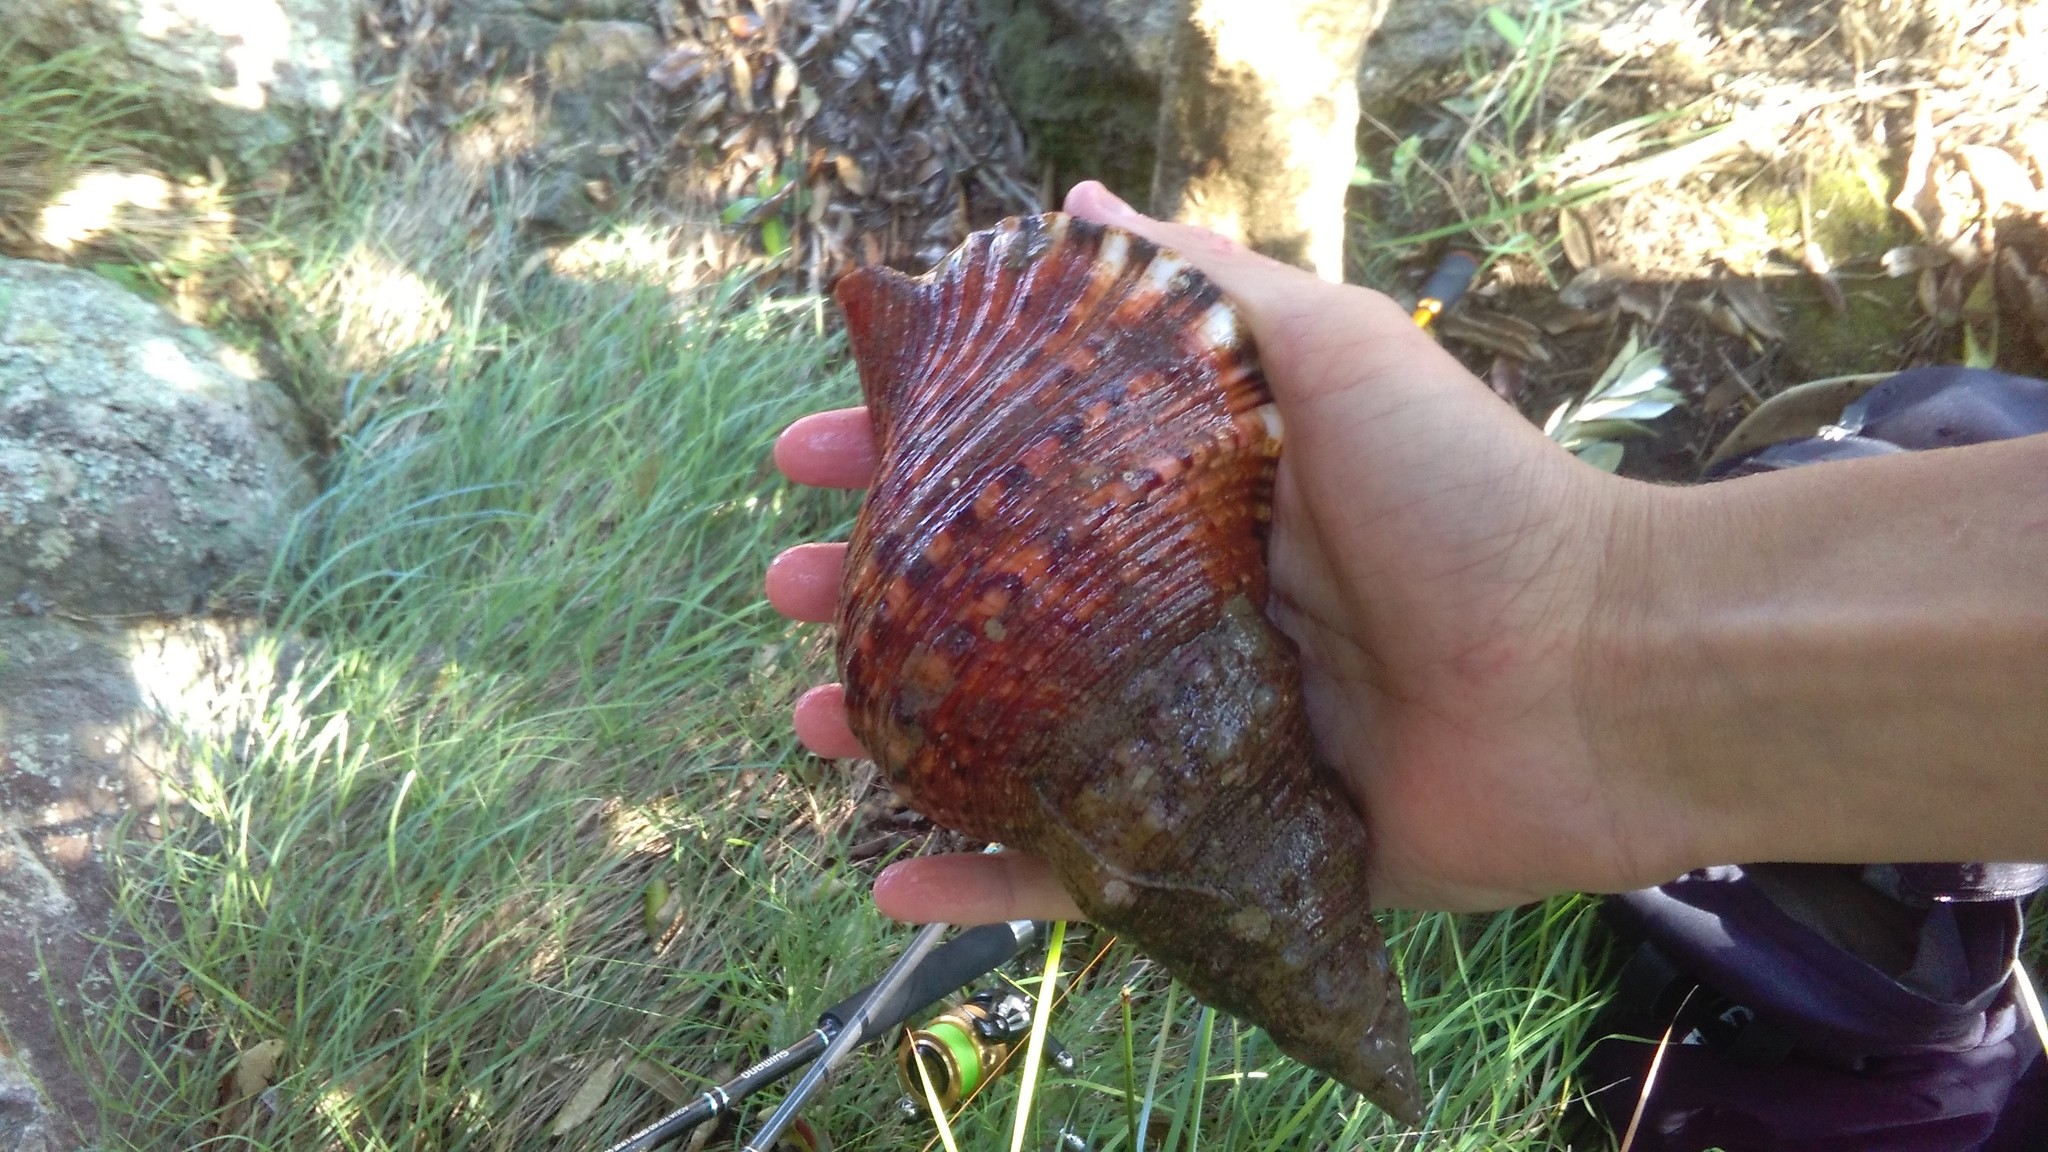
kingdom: Animalia
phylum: Mollusca
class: Gastropoda
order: Littorinimorpha
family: Charoniidae
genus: Charonia
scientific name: Charonia lampas
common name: Knobbed triton
